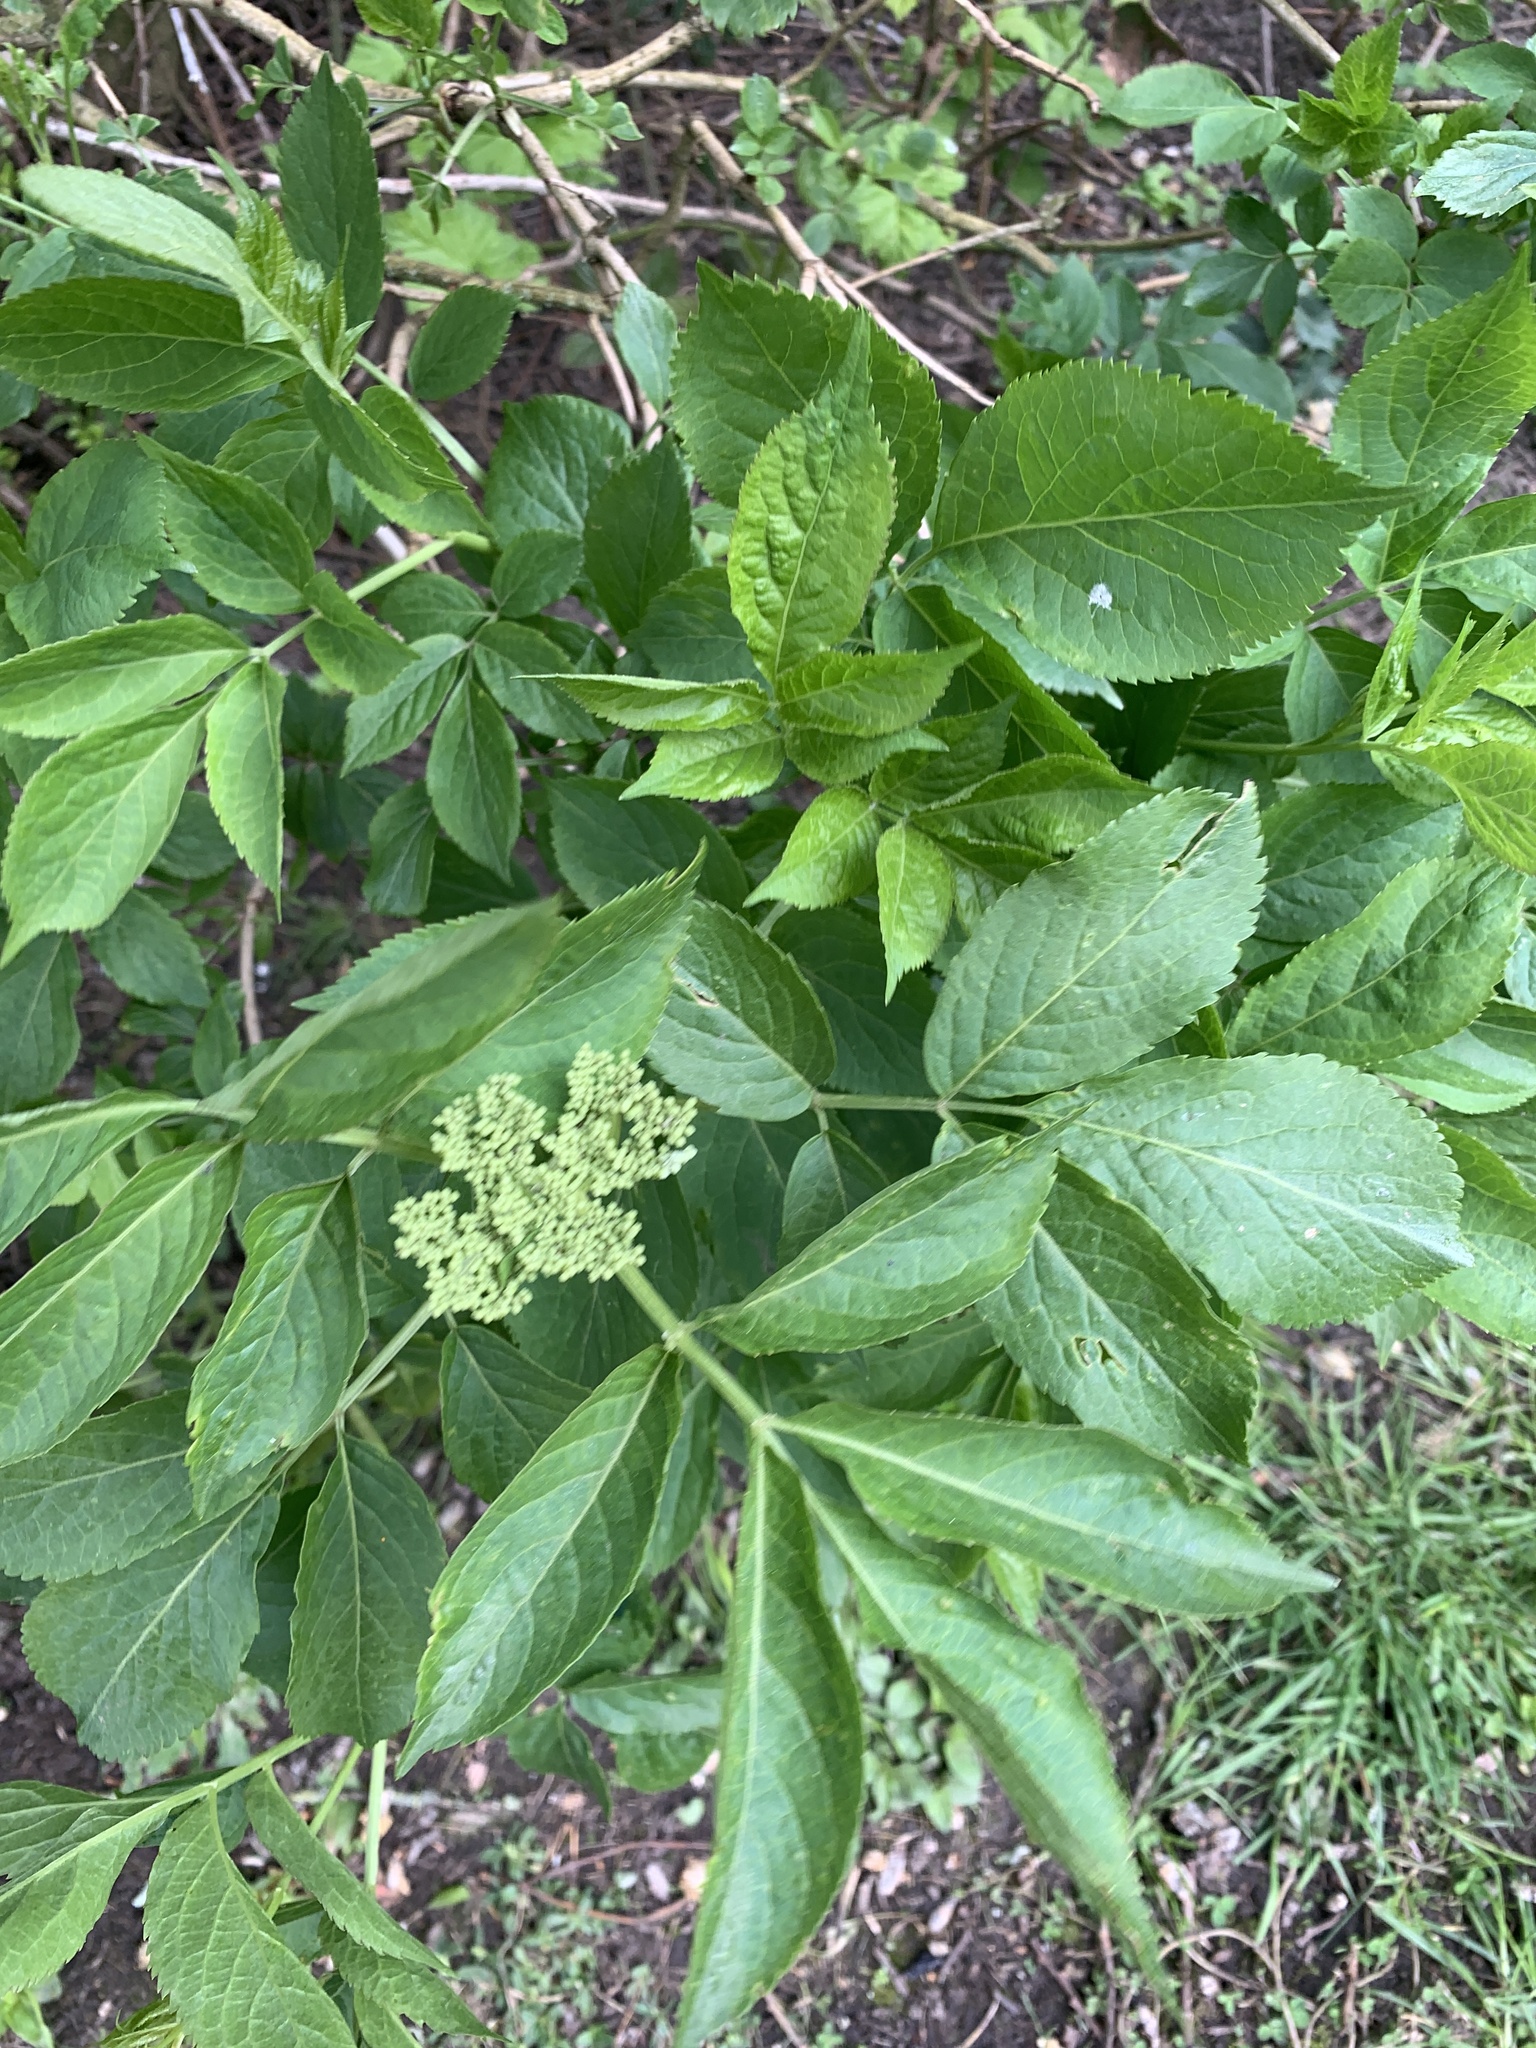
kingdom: Plantae
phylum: Tracheophyta
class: Magnoliopsida
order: Dipsacales
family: Viburnaceae
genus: Sambucus
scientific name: Sambucus nigra
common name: Elder
